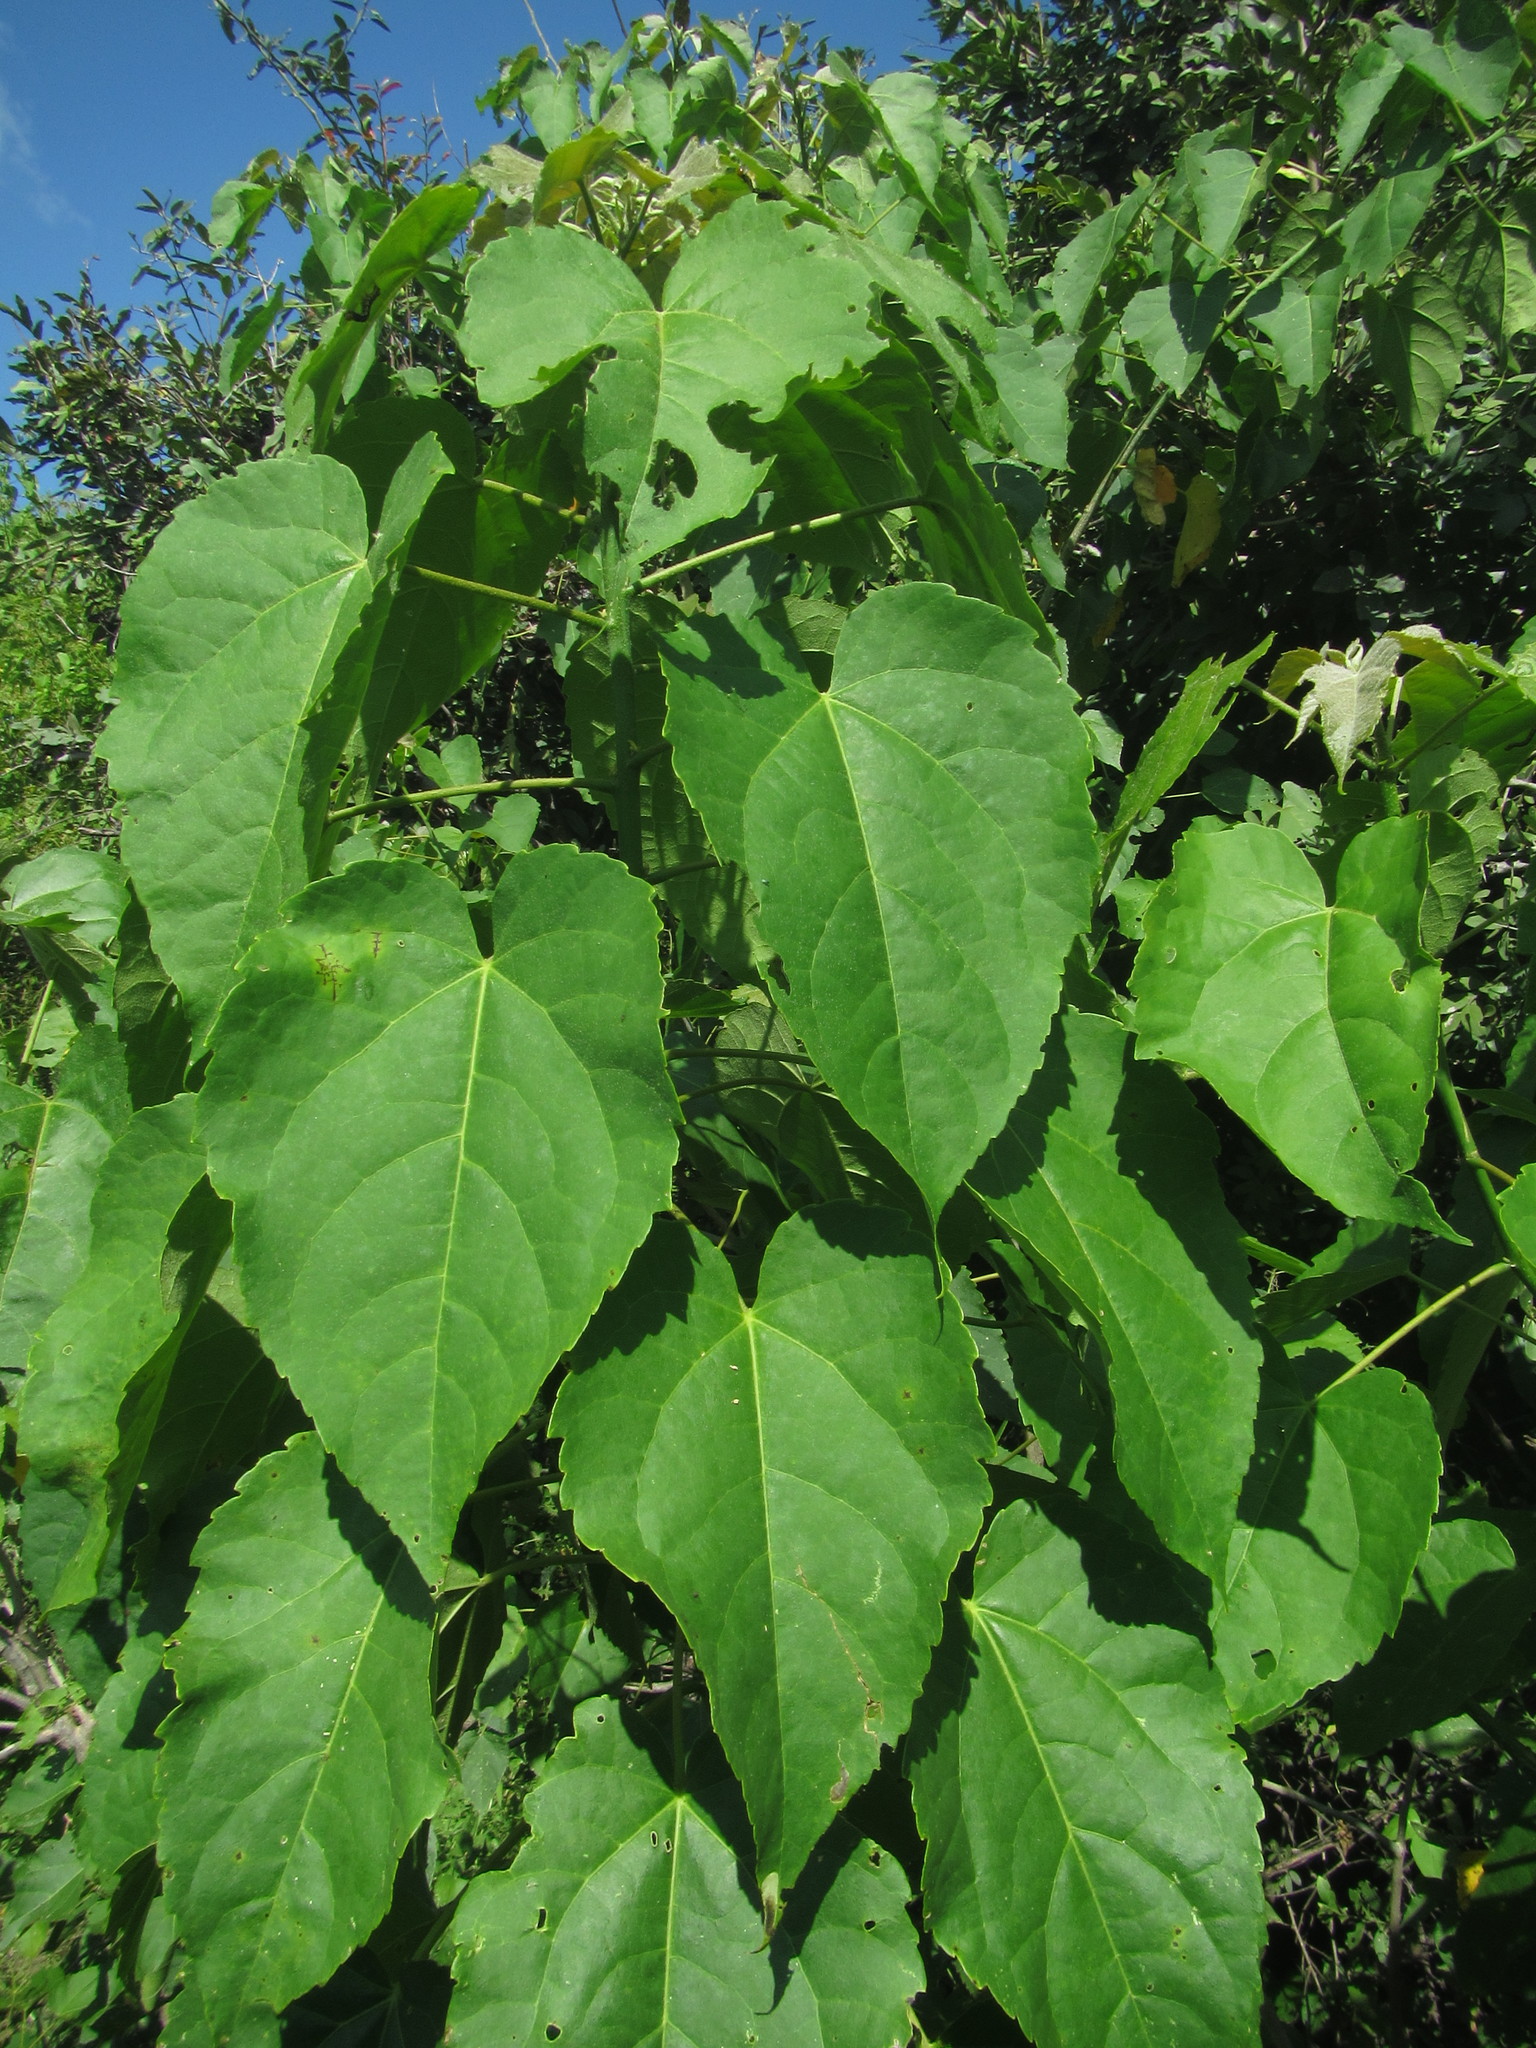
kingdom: Plantae
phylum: Tracheophyta
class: Magnoliopsida
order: Malpighiales
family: Euphorbiaceae
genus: Croton
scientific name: Croton megalobotrys
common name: Large fever berry
